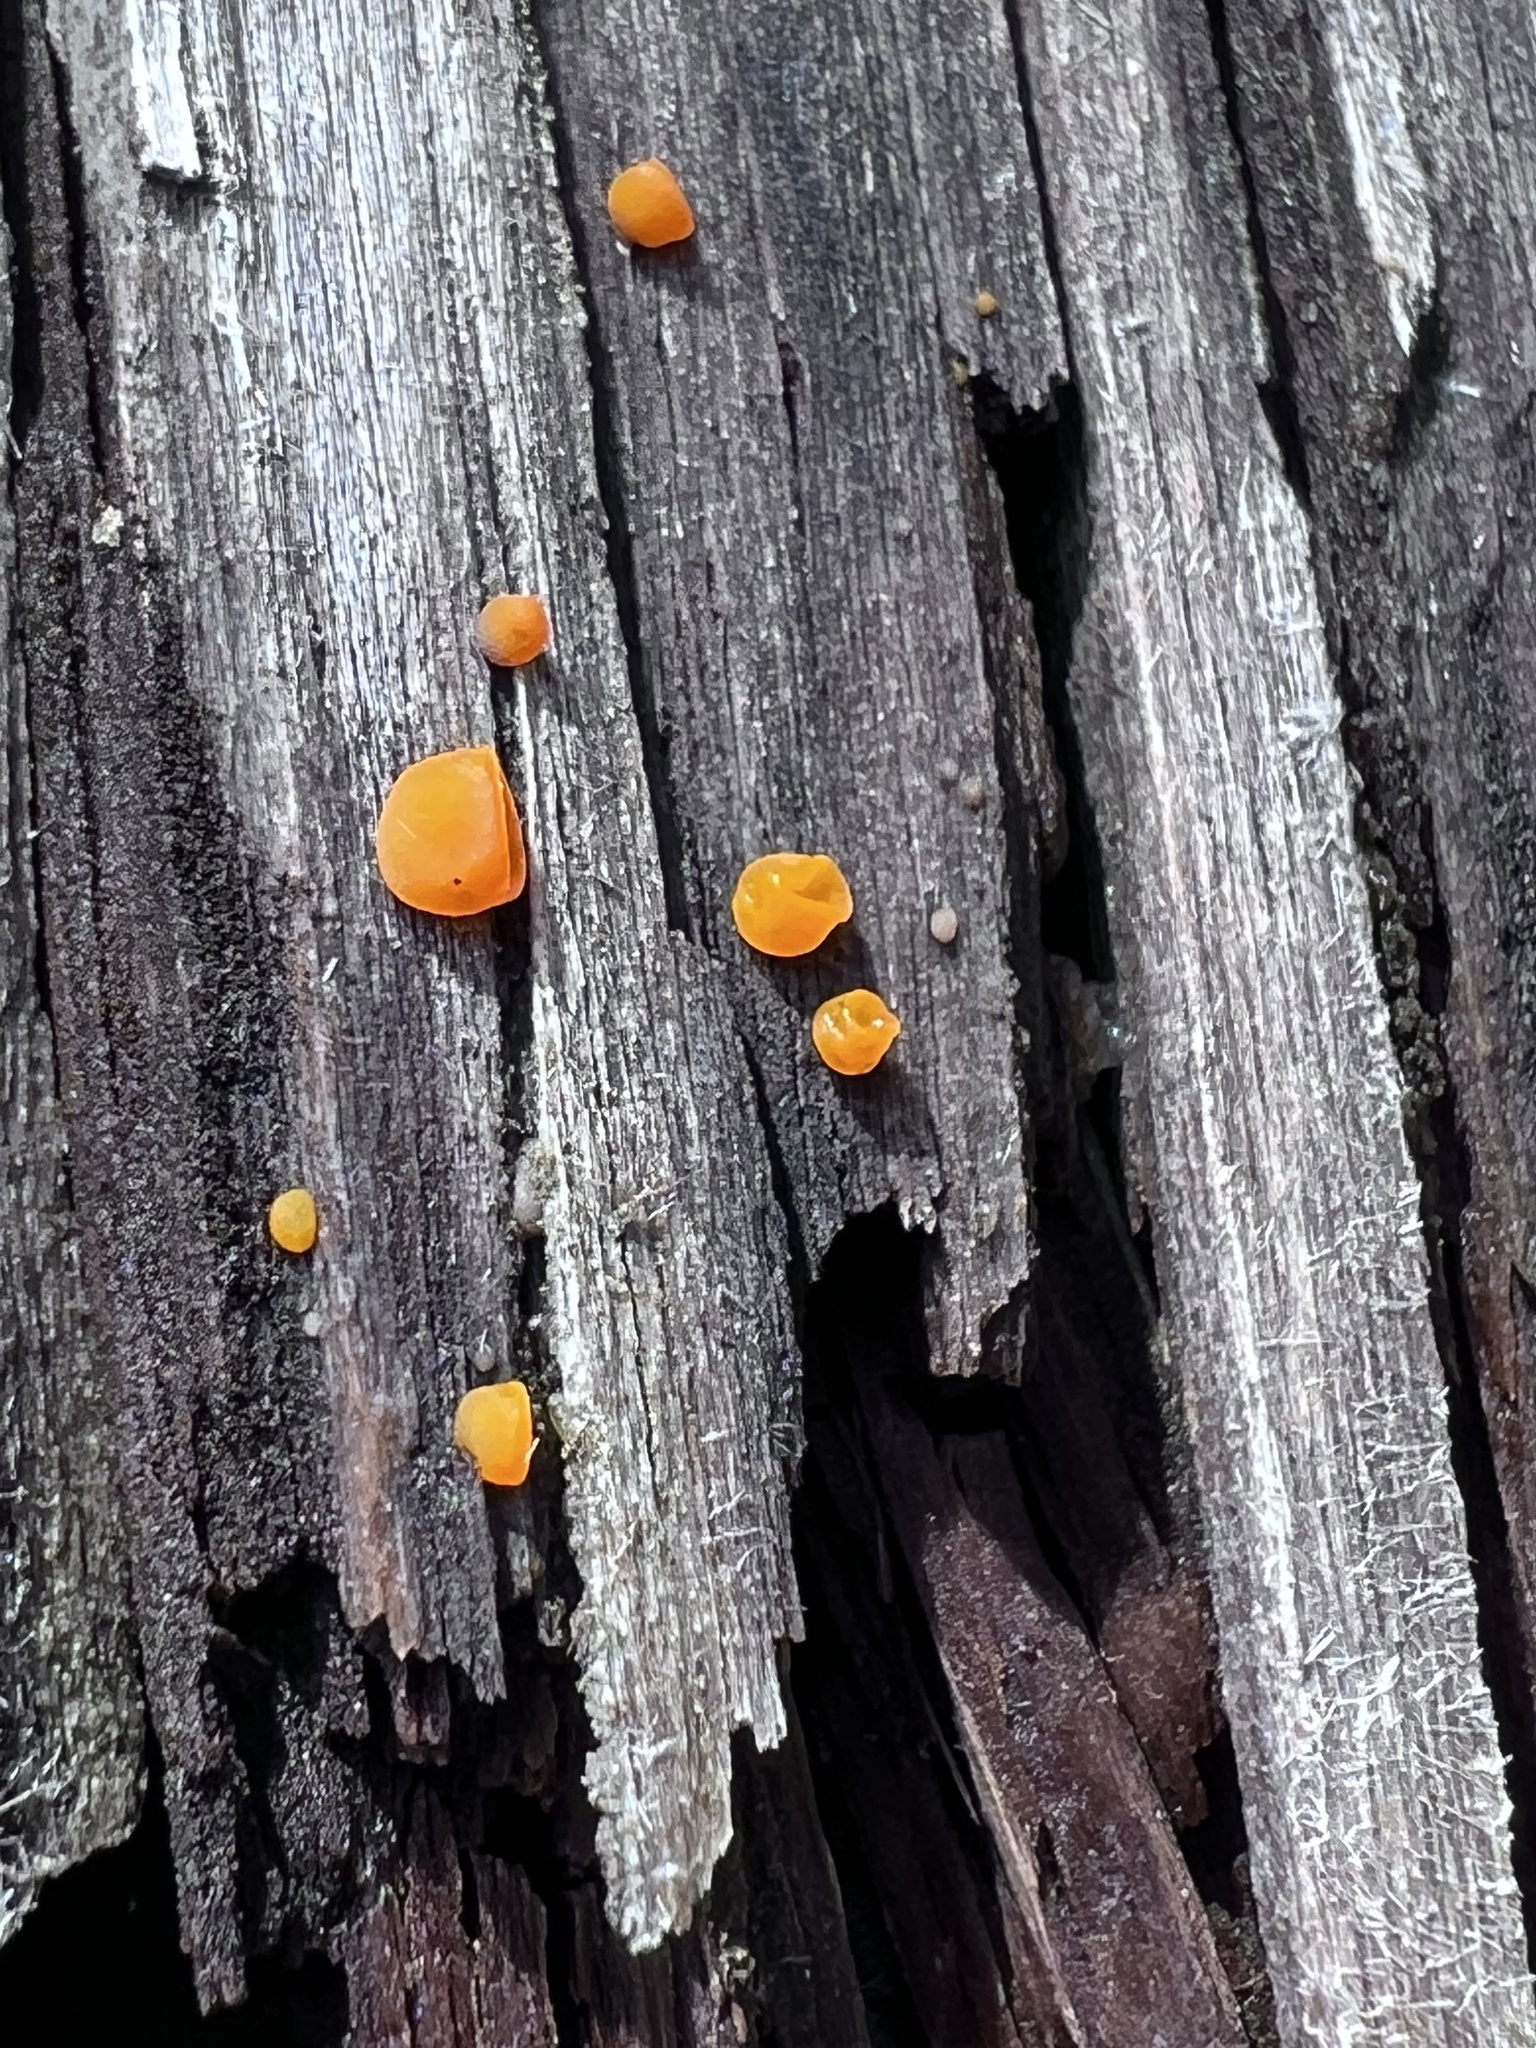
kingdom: Fungi
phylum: Basidiomycota
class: Dacrymycetes
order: Dacrymycetales
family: Dacrymycetaceae
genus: Dacrymyces
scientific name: Dacrymyces stillatus
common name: Common jelly spot
